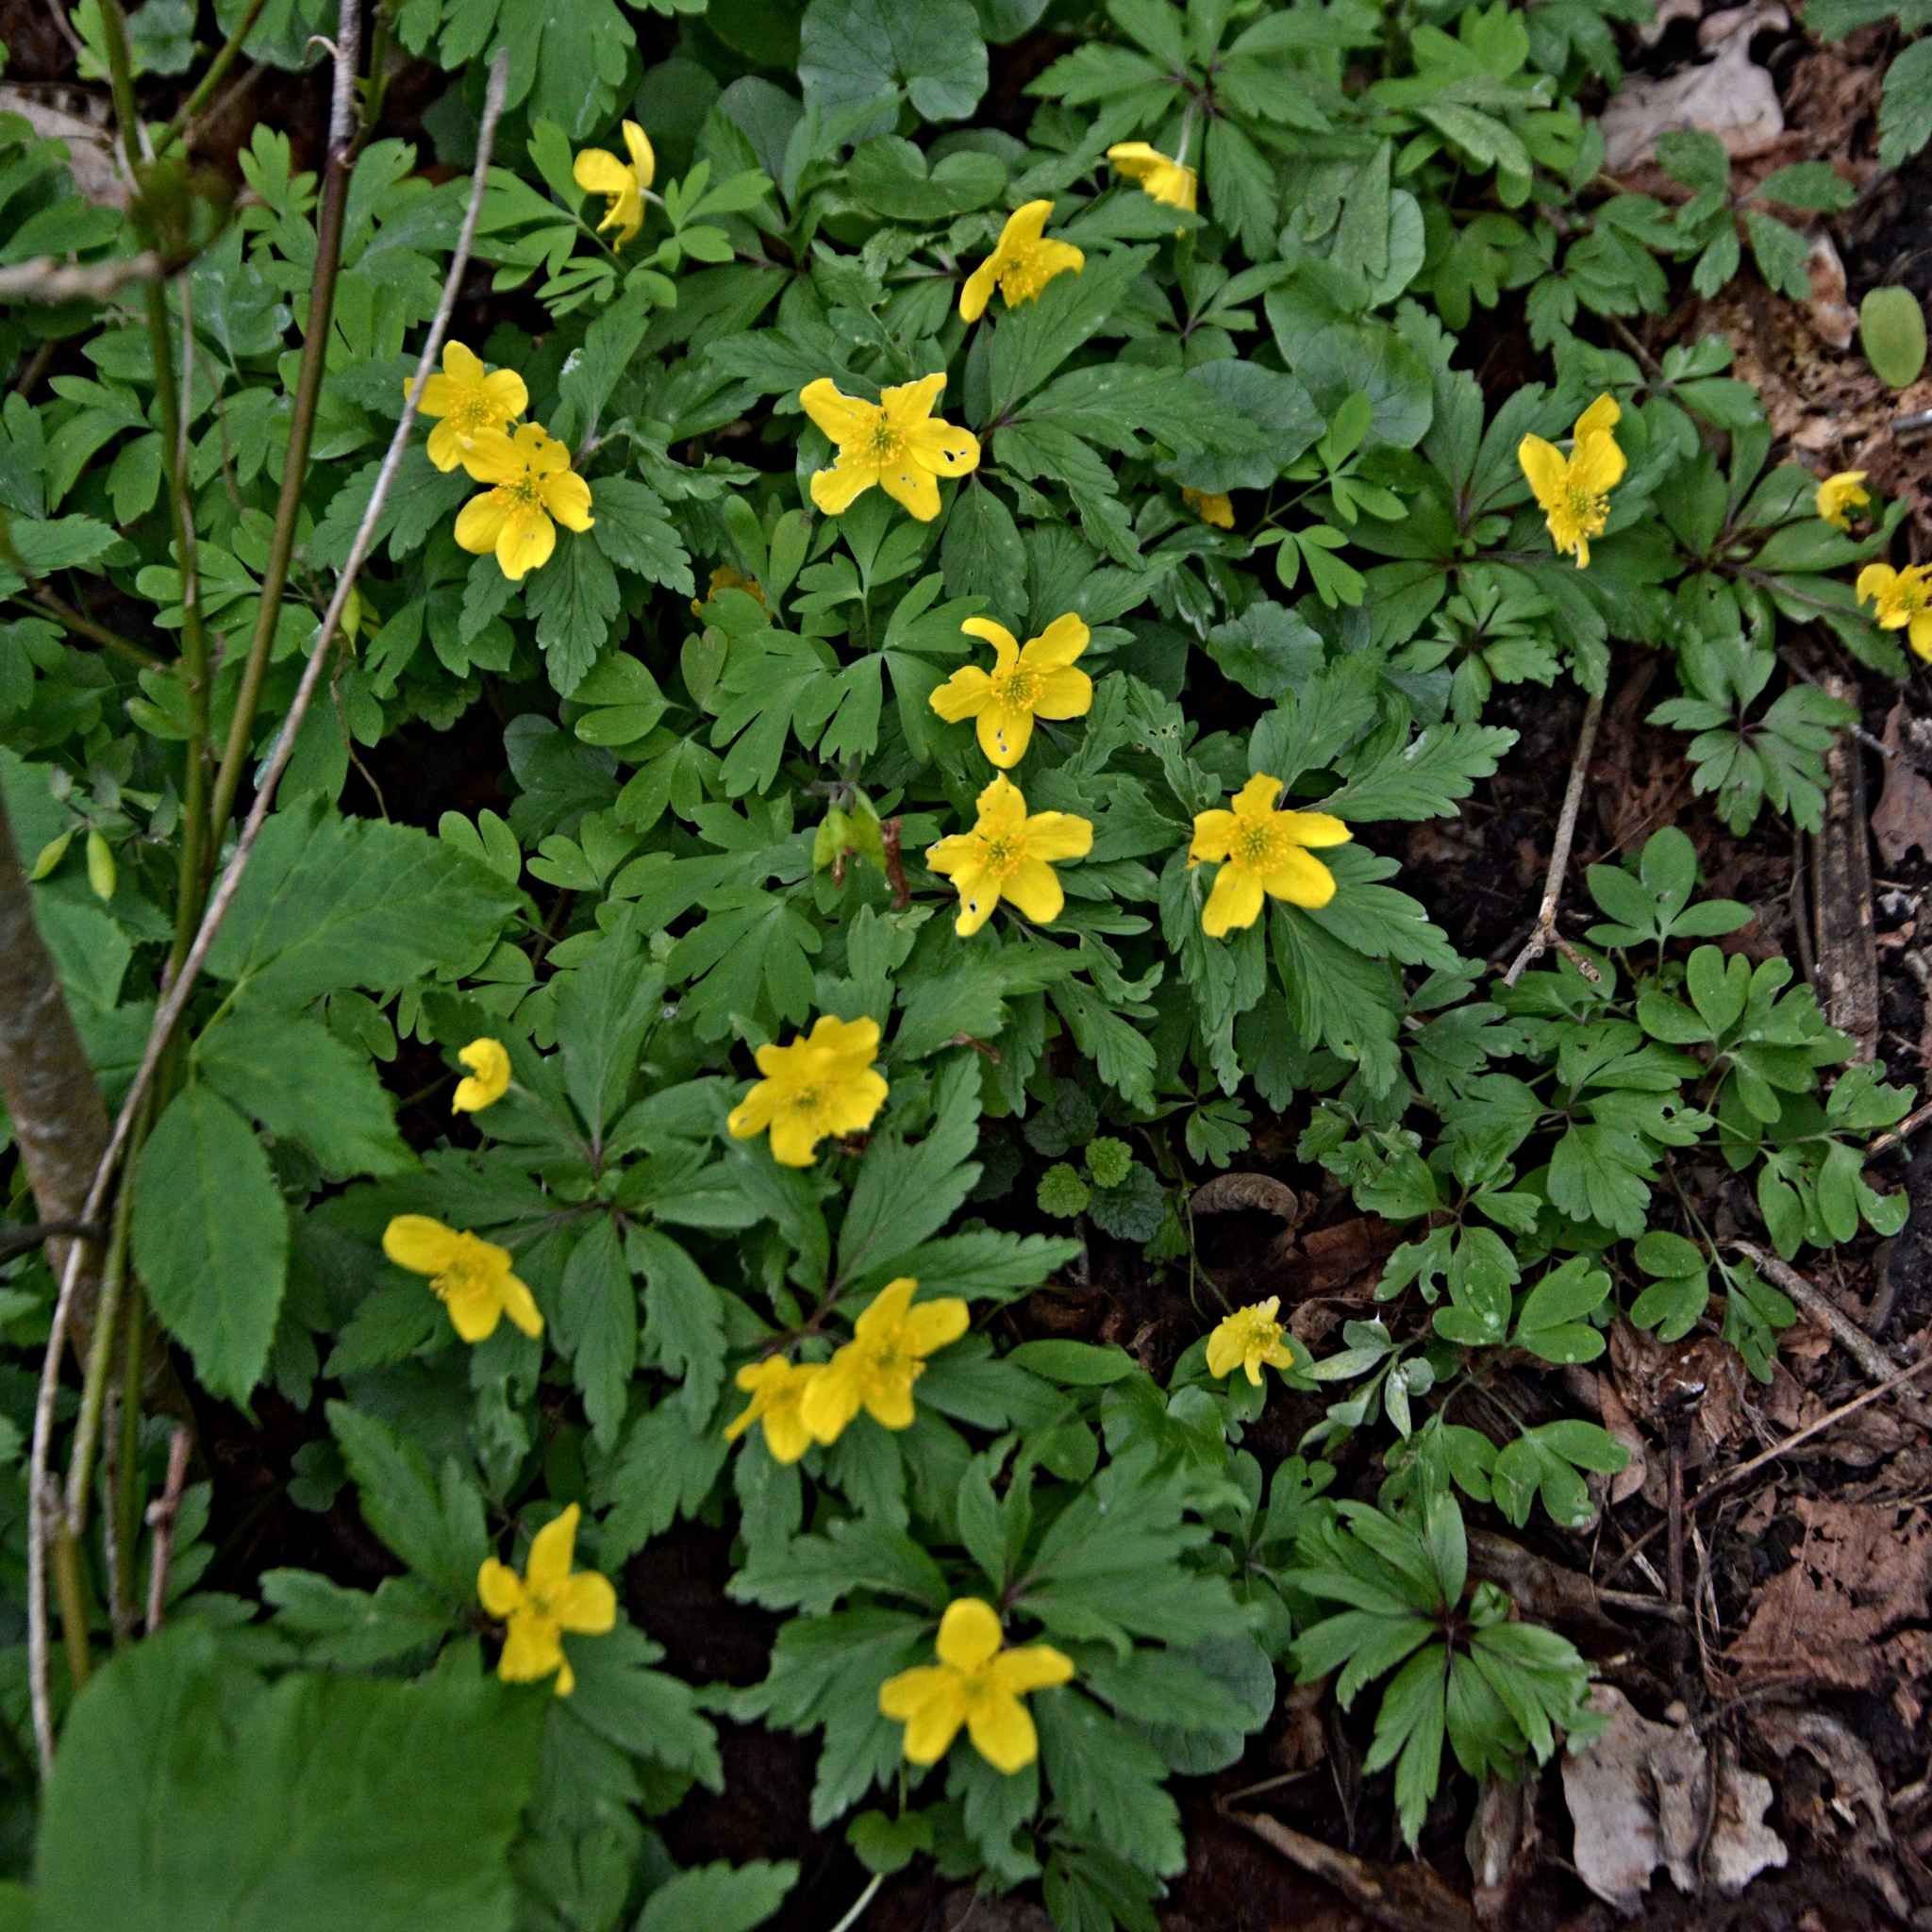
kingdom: Plantae
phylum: Tracheophyta
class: Magnoliopsida
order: Ranunculales
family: Ranunculaceae
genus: Anemone
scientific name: Anemone ranunculoides
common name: Yellow anemone
